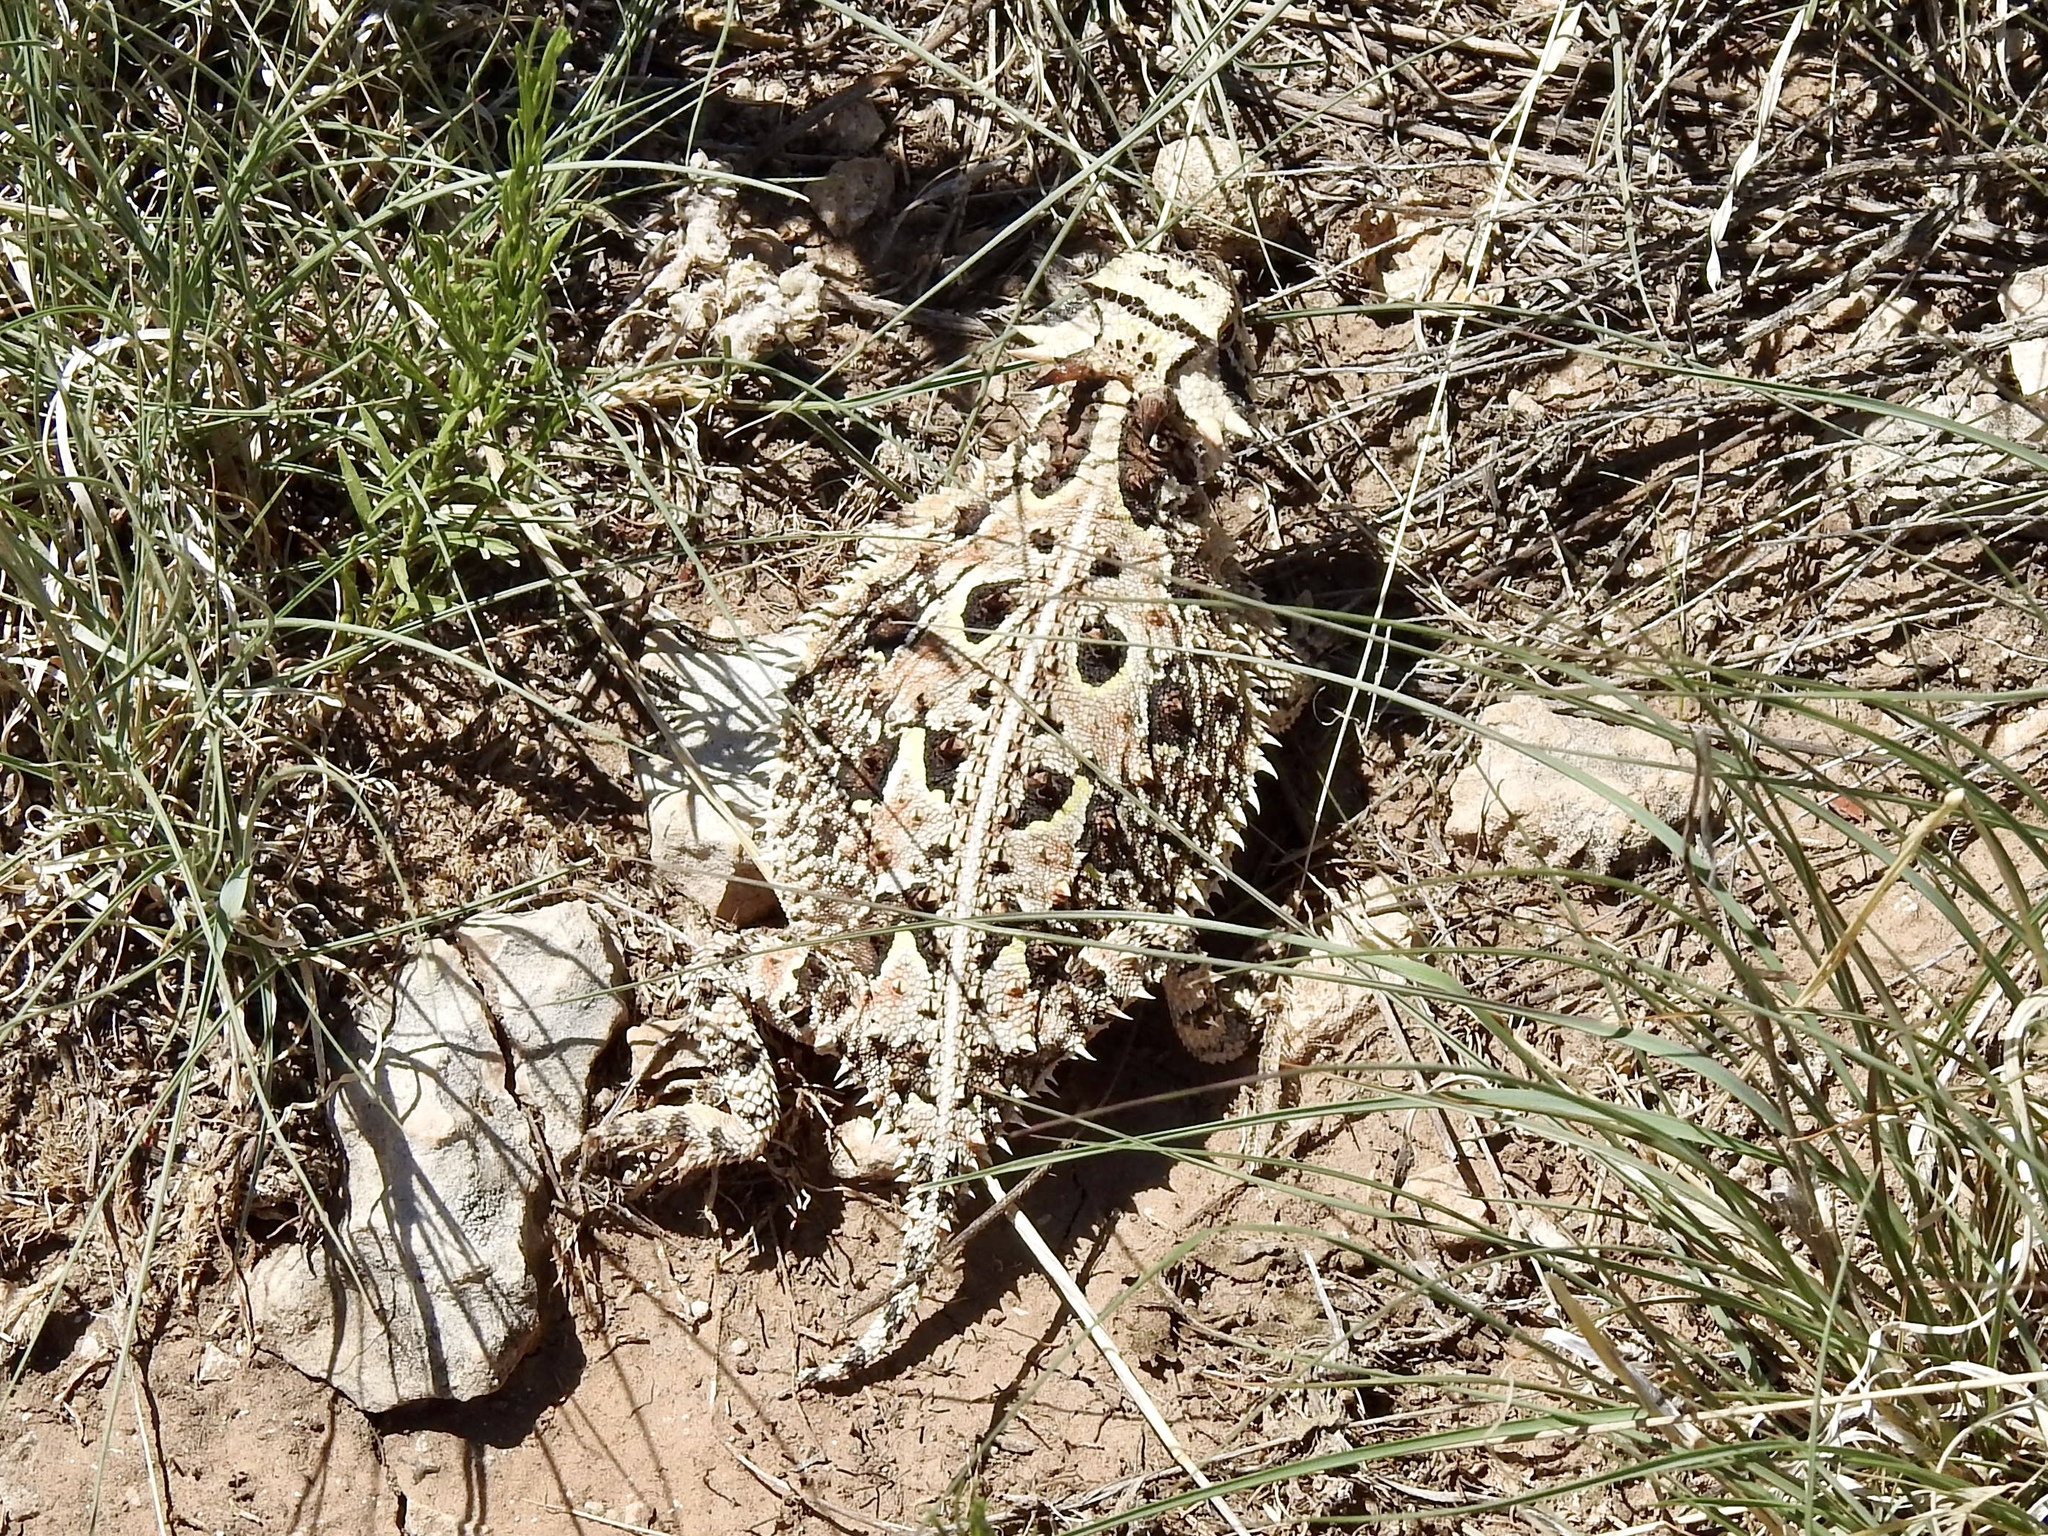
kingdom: Animalia
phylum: Chordata
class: Squamata
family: Phrynosomatidae
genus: Phrynosoma
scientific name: Phrynosoma cornutum
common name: Texas horned lizard
